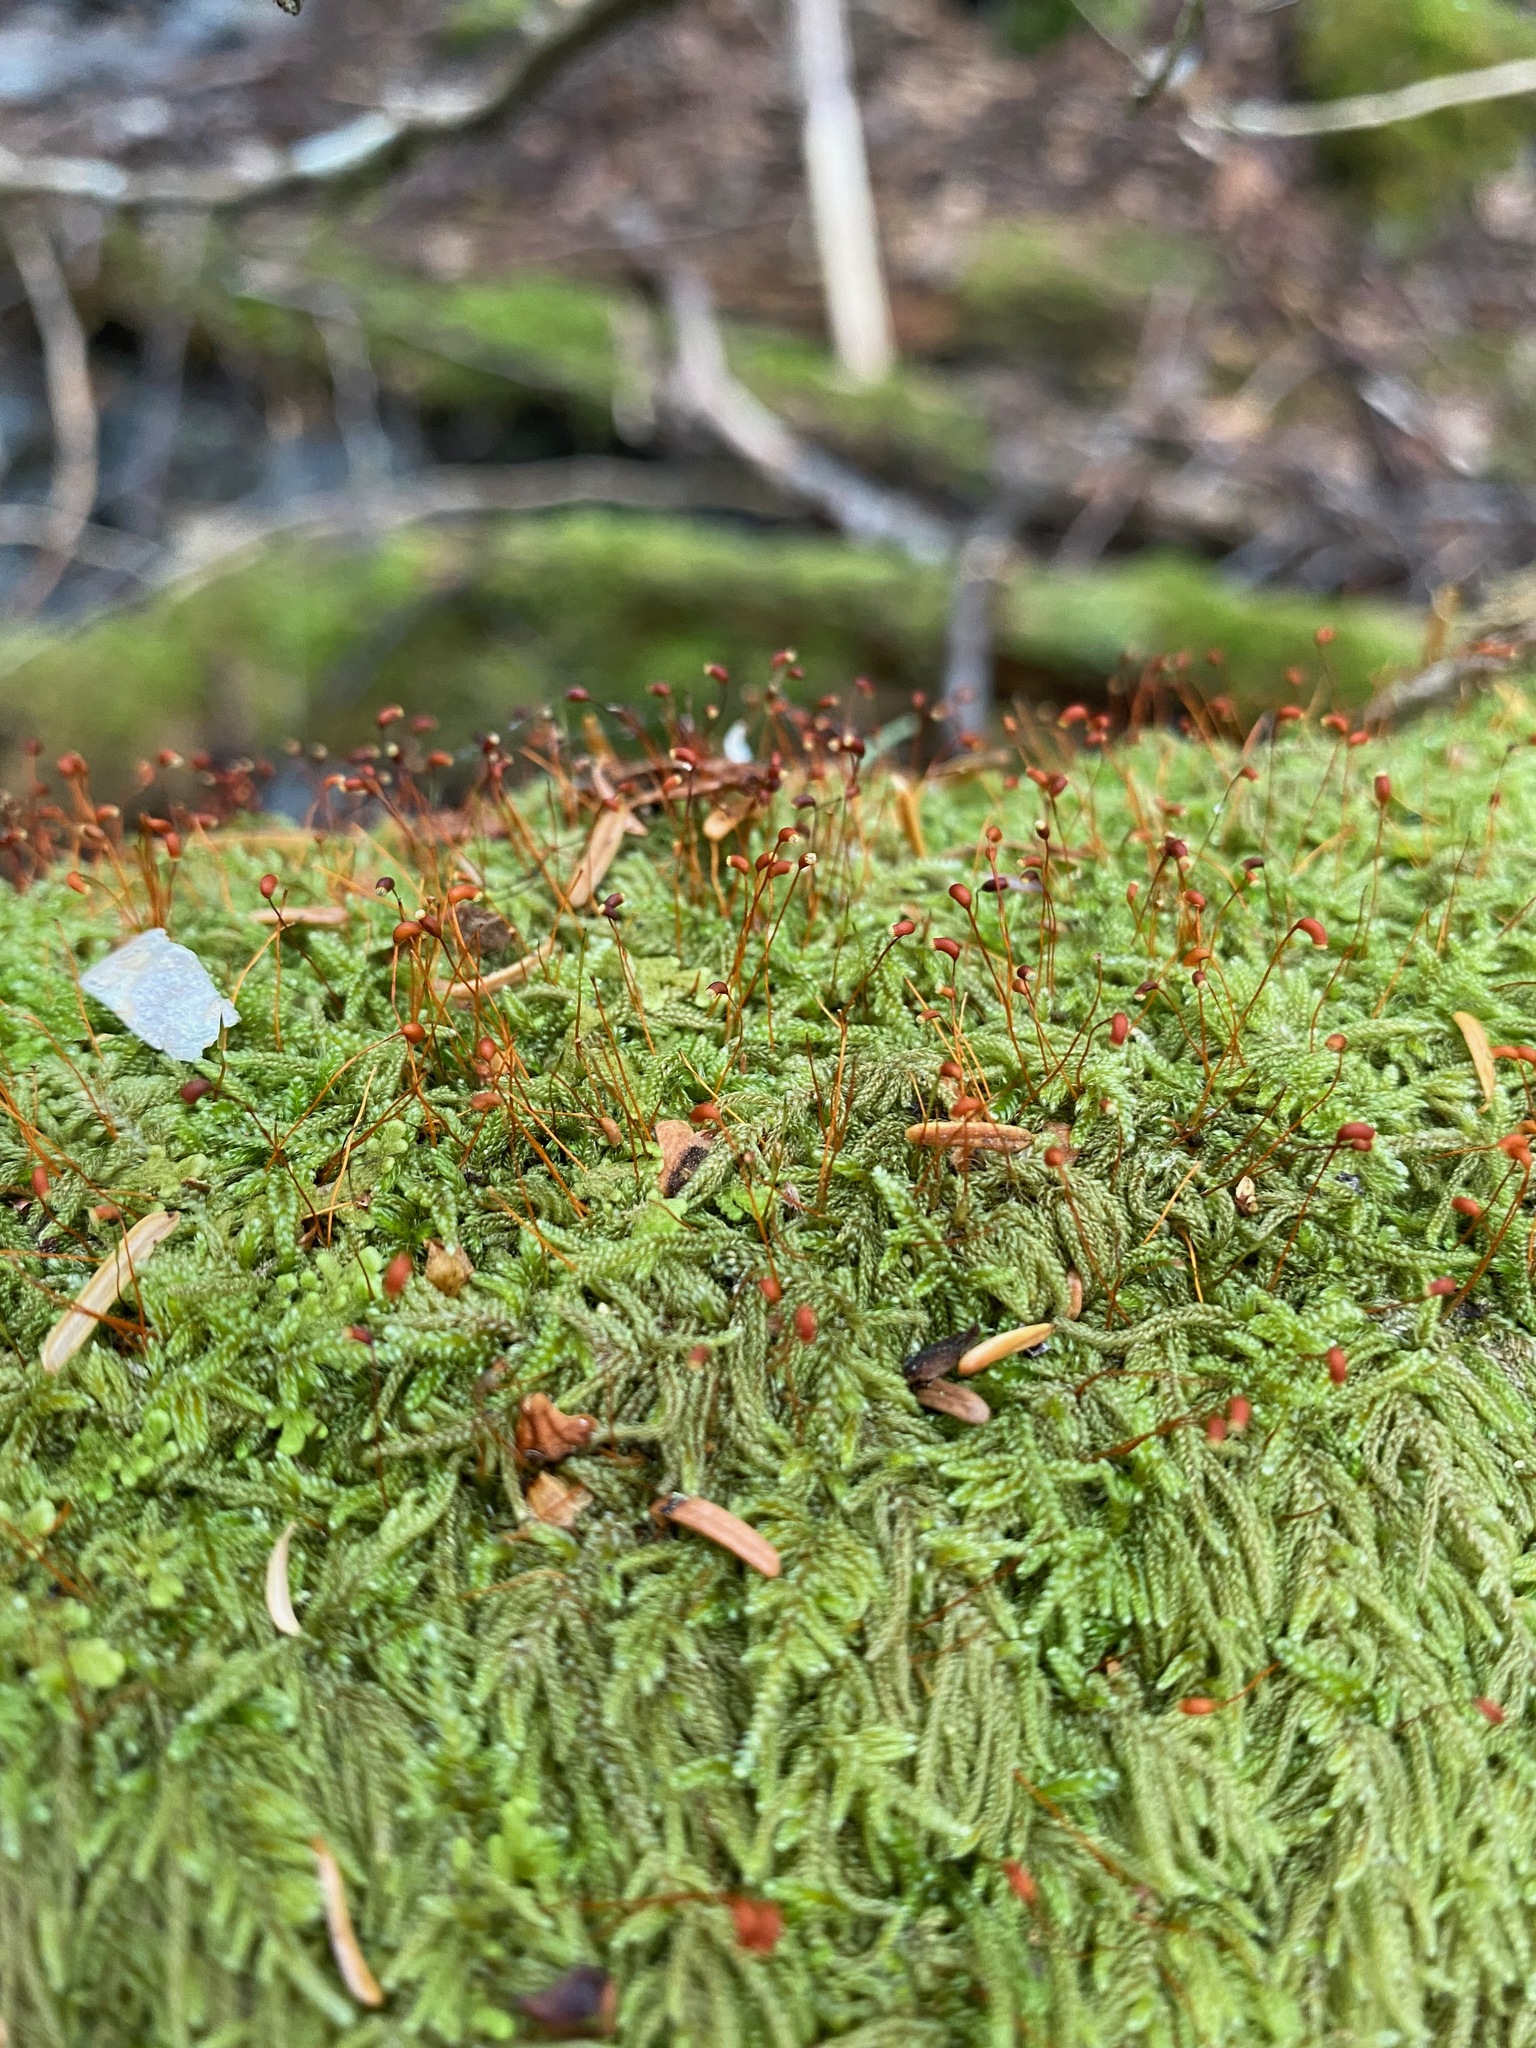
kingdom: Plantae
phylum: Bryophyta
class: Bryopsida
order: Hypnales
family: Pylaisiadelphaceae
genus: Trochophyllohypnum
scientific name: Trochophyllohypnum circinale
